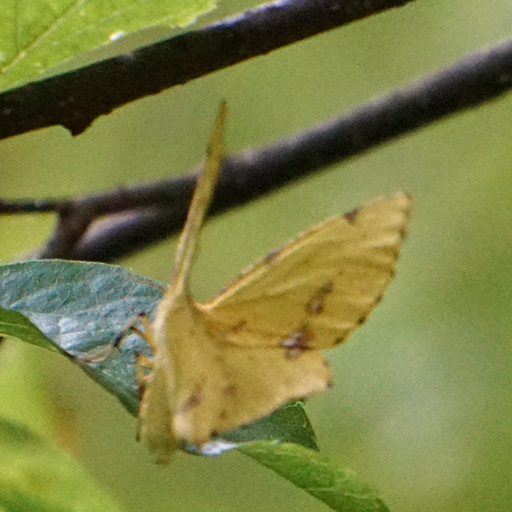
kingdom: Animalia
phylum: Arthropoda
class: Insecta
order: Lepidoptera
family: Geometridae
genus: Xanthotype
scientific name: Xanthotype
